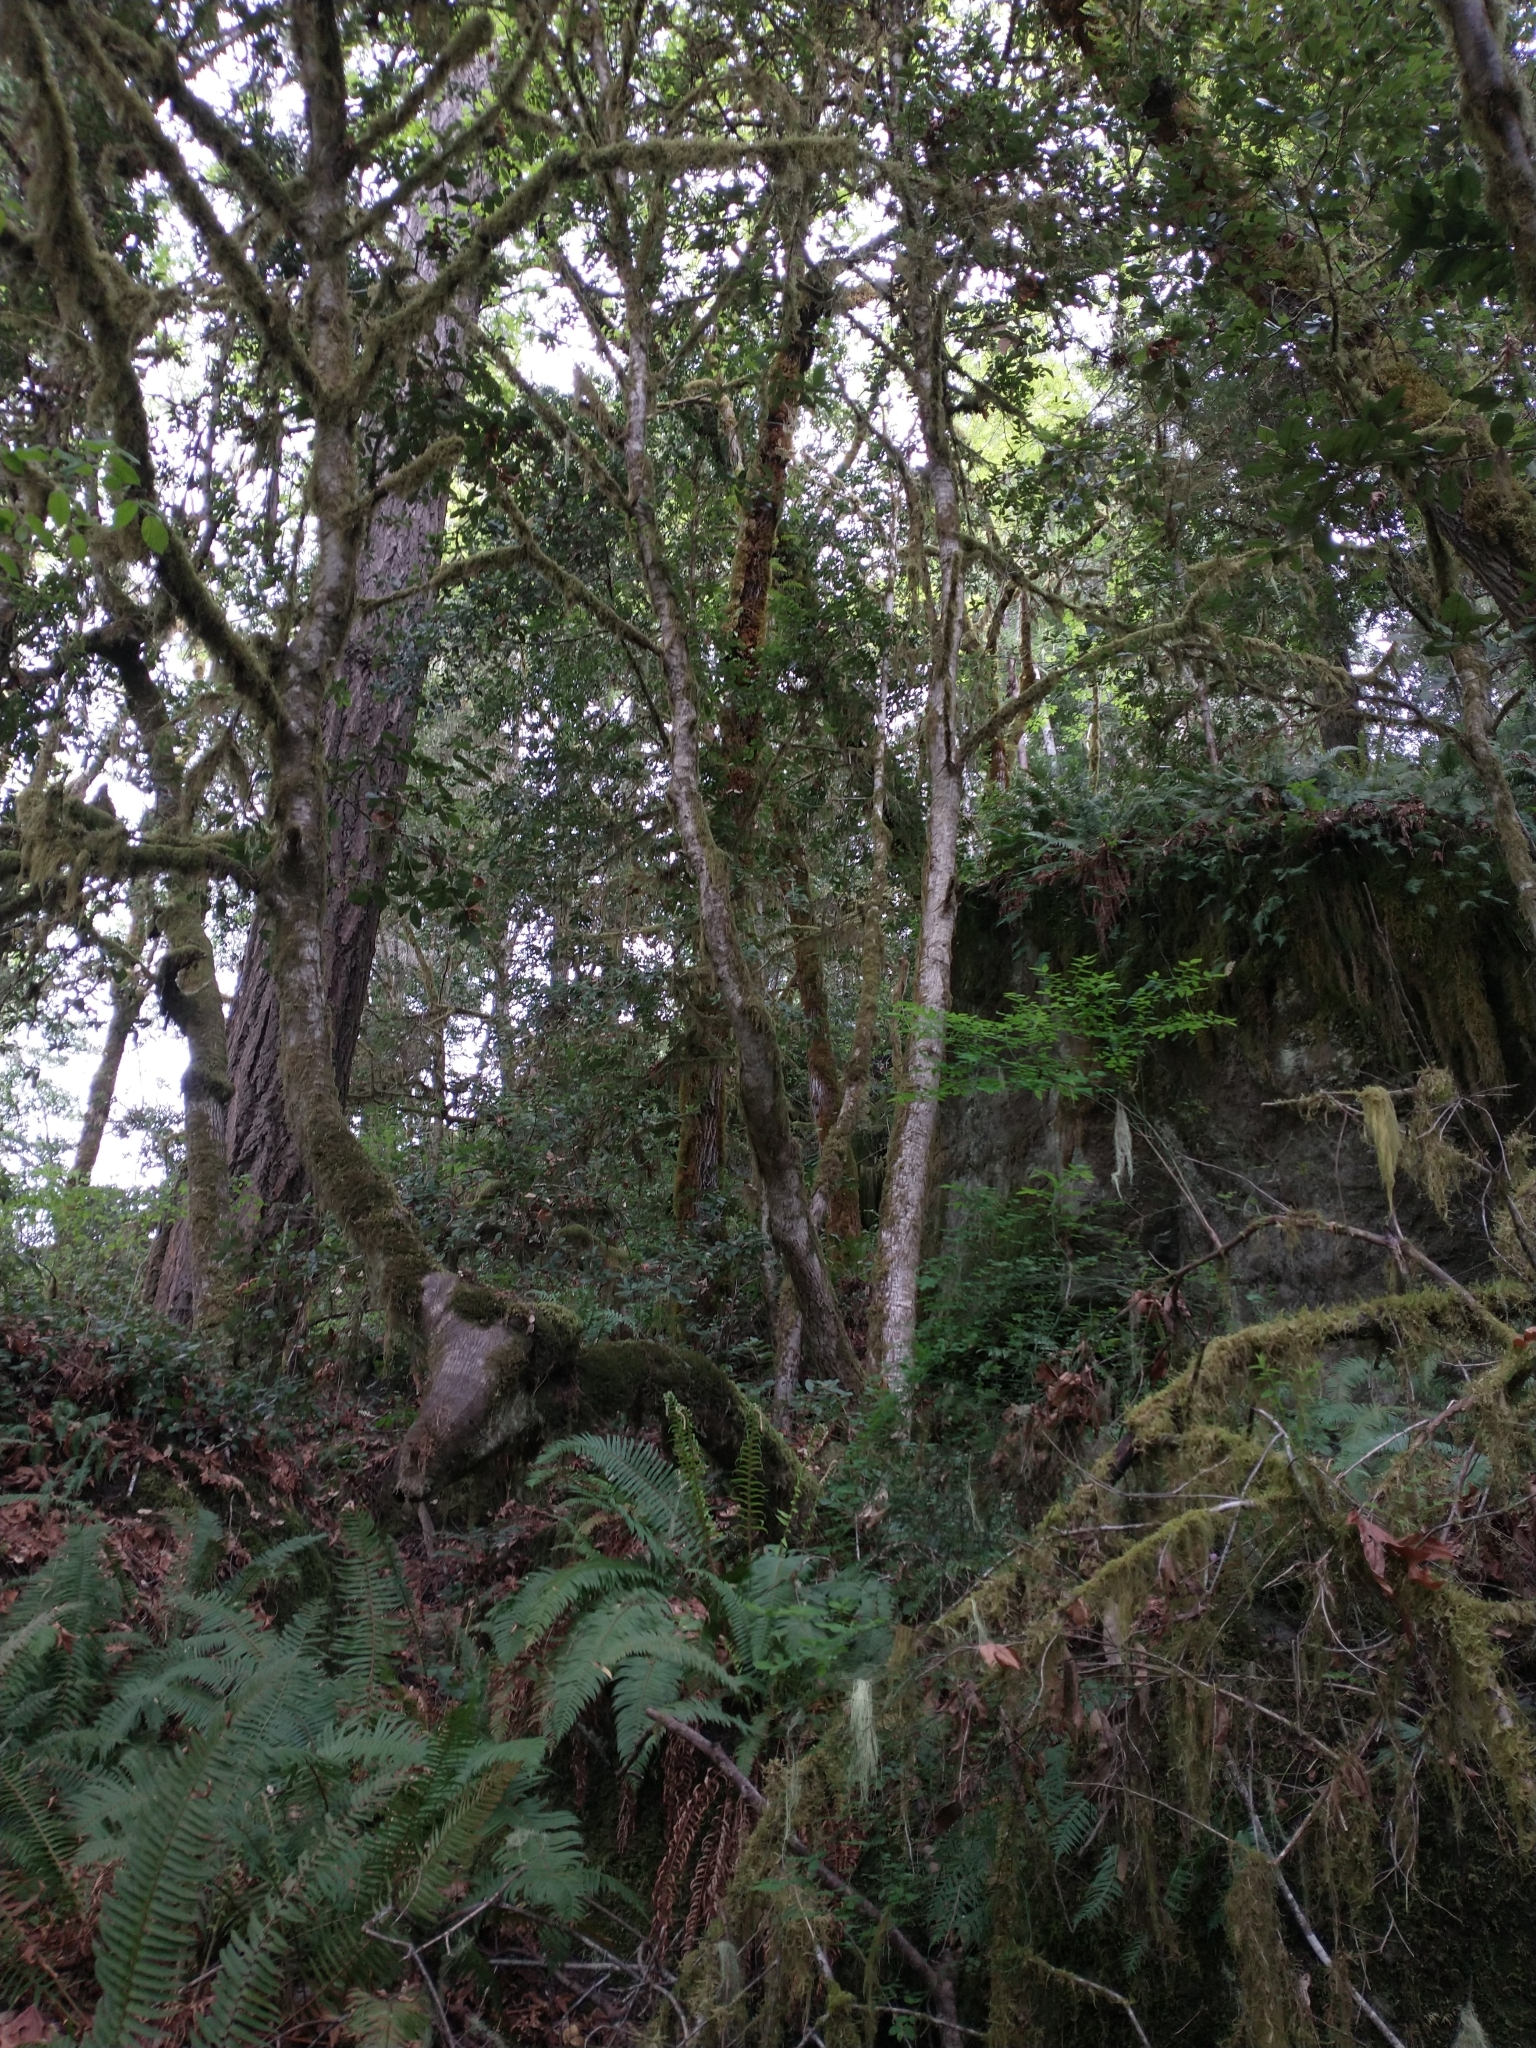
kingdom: Plantae
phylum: Tracheophyta
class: Polypodiopsida
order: Polypodiales
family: Dryopteridaceae
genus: Polystichum
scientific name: Polystichum munitum
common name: Western sword-fern
